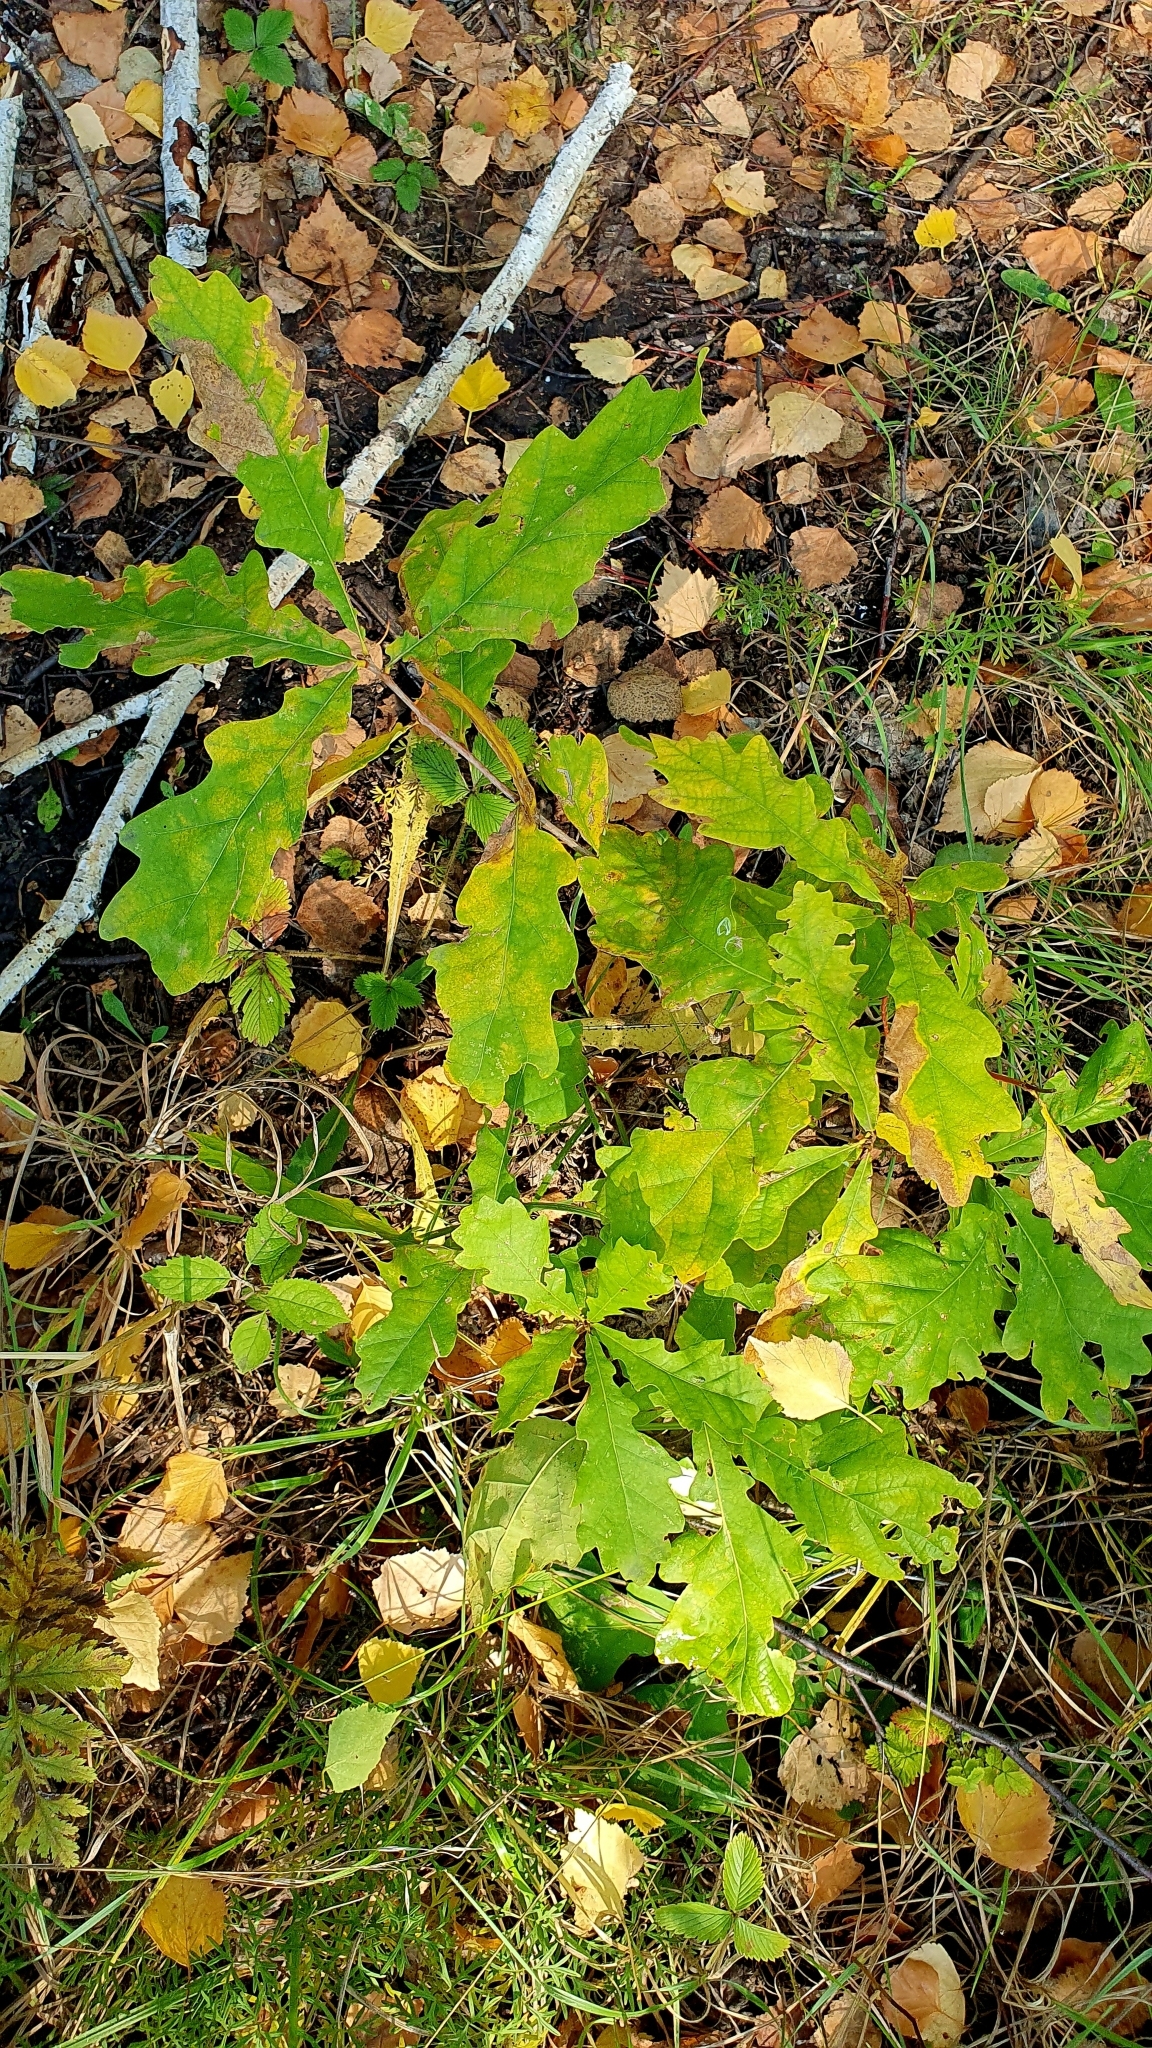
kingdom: Plantae
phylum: Tracheophyta
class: Magnoliopsida
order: Fagales
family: Fagaceae
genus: Quercus
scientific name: Quercus robur
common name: Pedunculate oak
